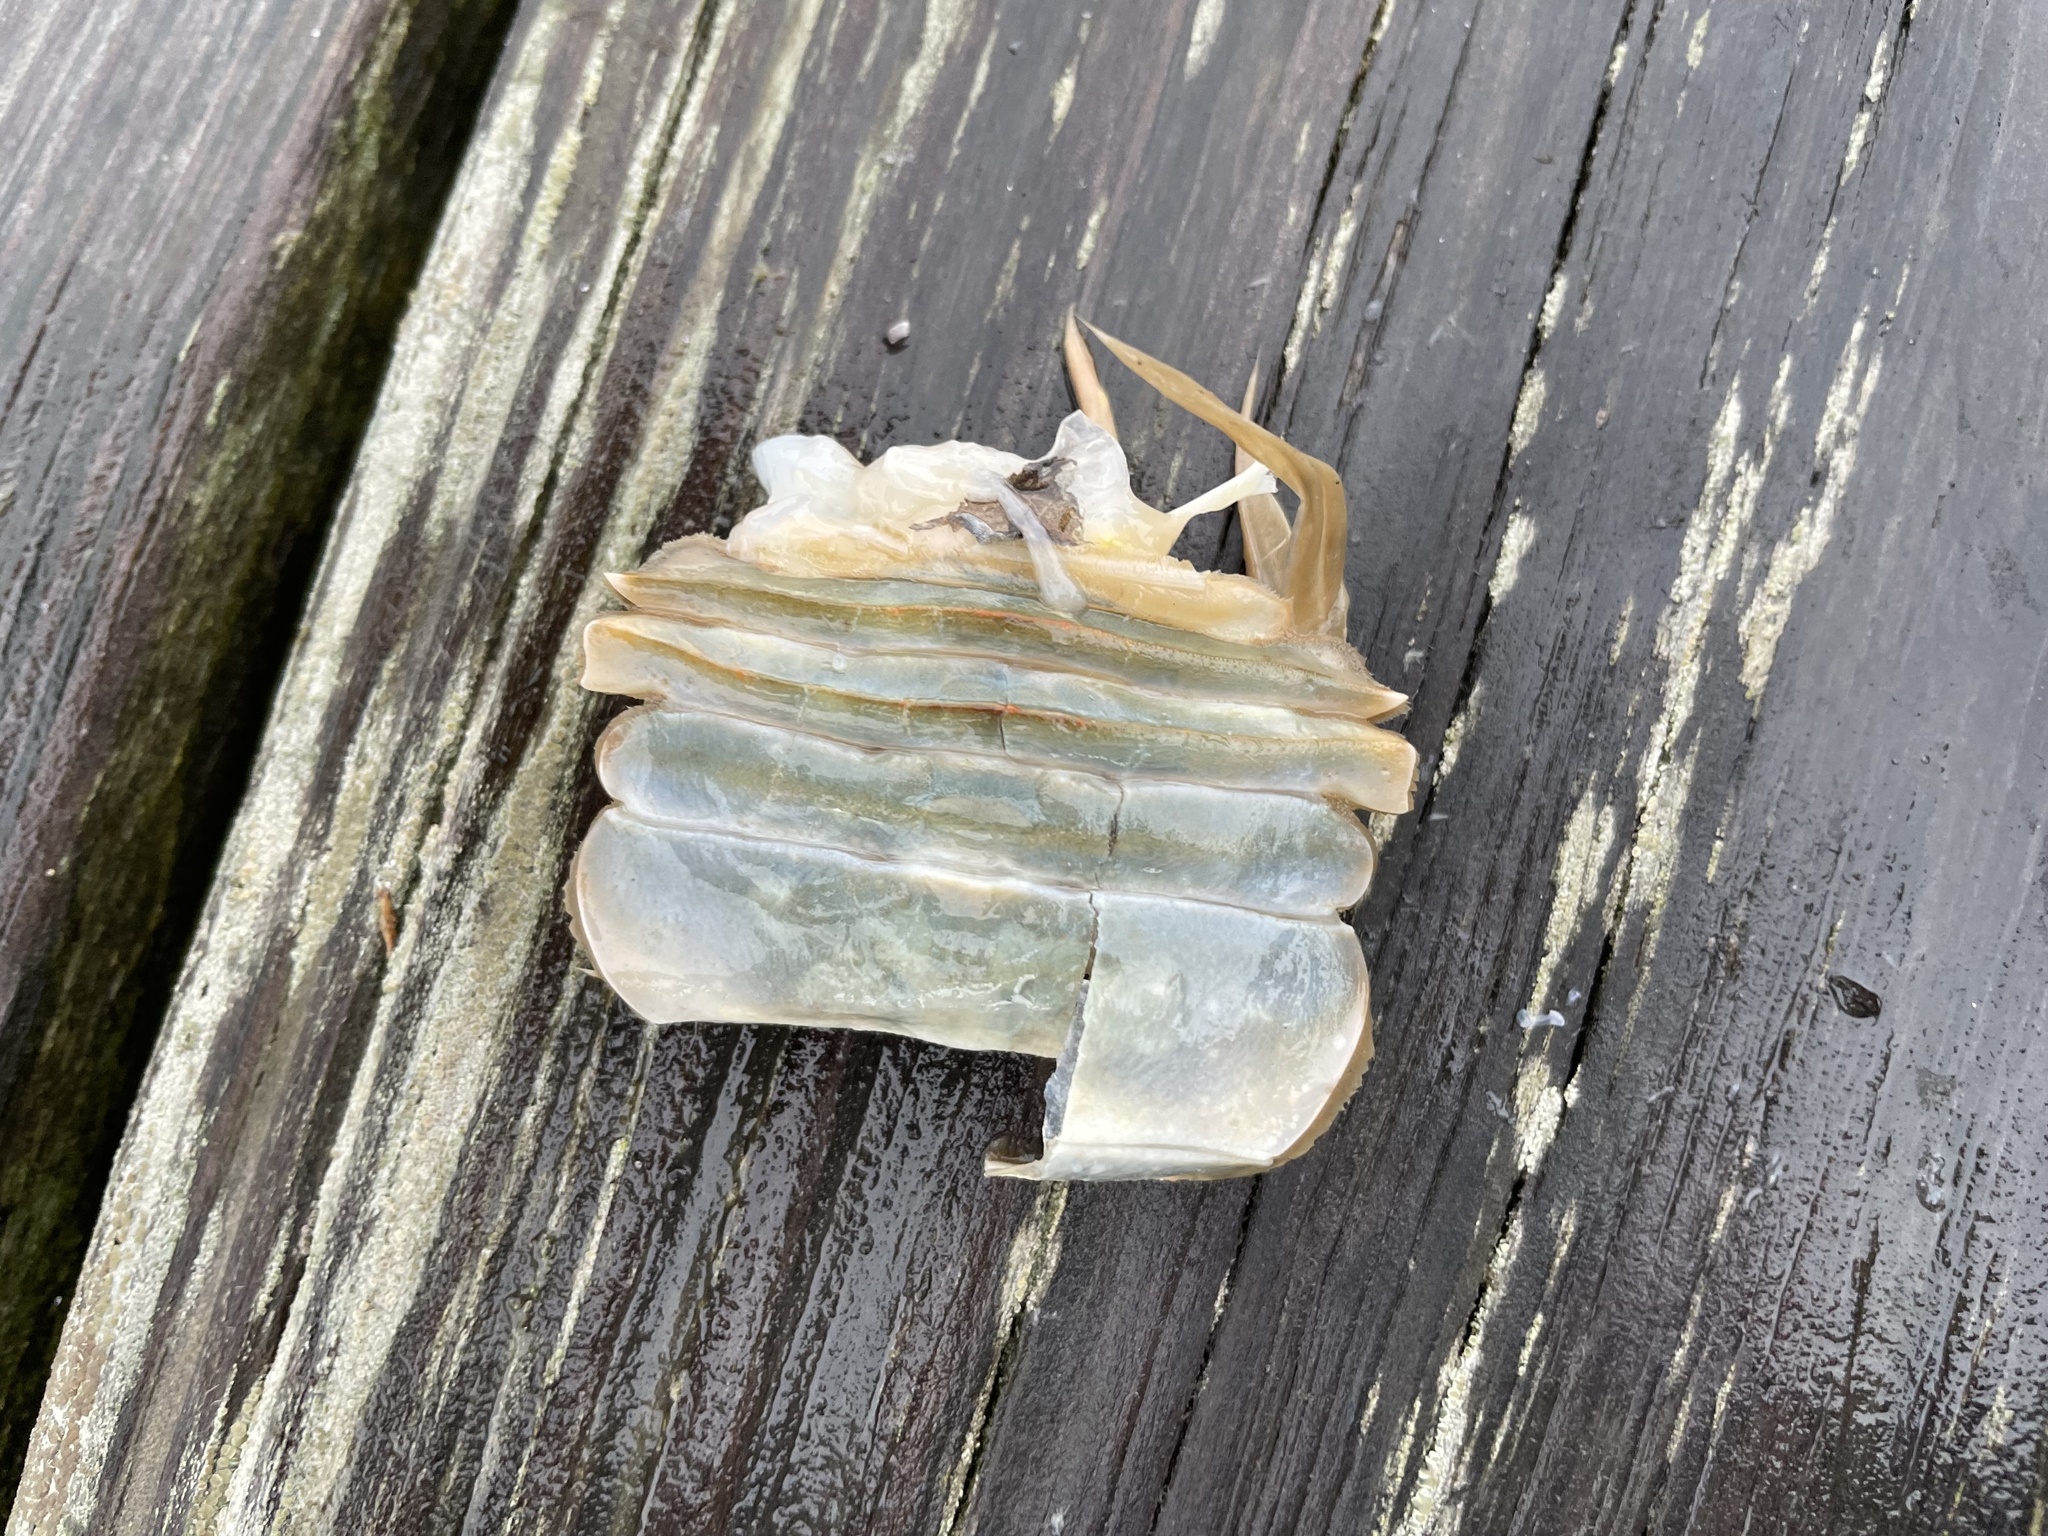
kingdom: Animalia
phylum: Arthropoda
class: Malacostraca
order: Decapoda
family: Portunidae
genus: Callinectes
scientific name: Callinectes sapidus
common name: Blue crab
